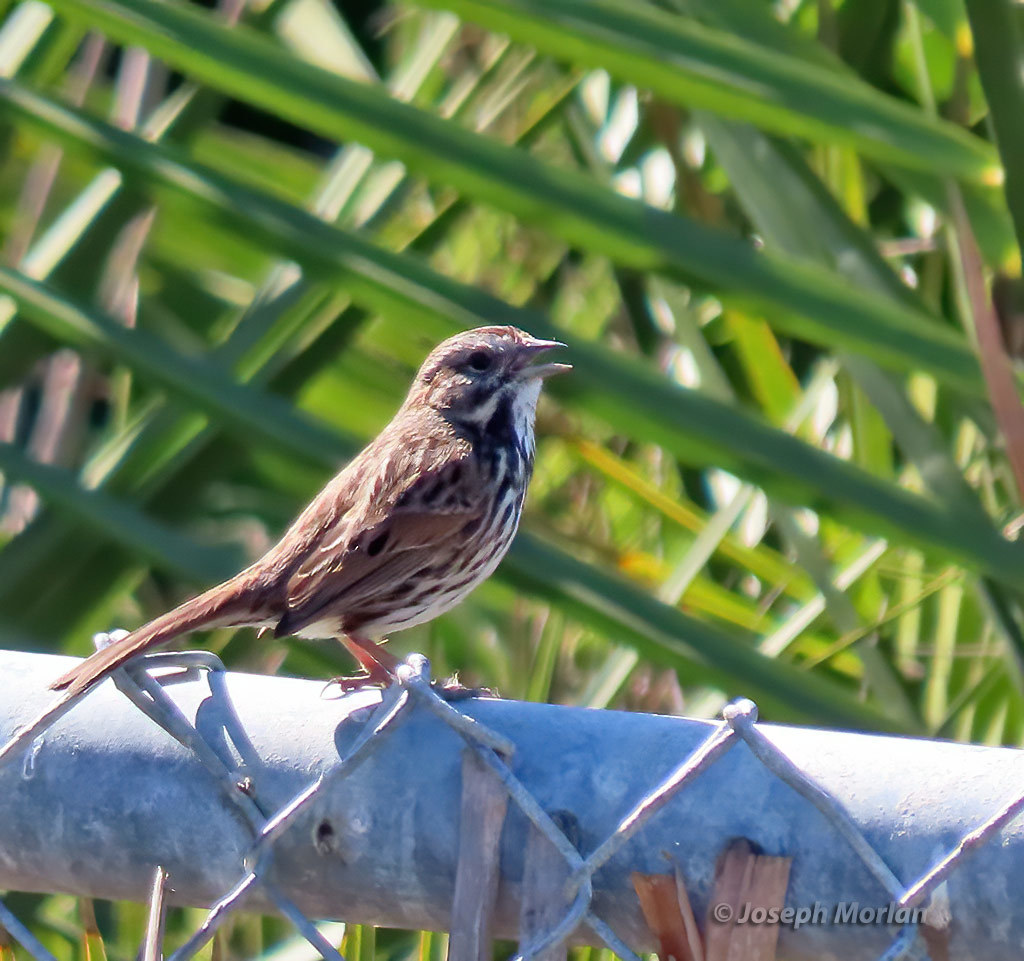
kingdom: Animalia
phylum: Chordata
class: Aves
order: Passeriformes
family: Passerellidae
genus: Melospiza
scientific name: Melospiza melodia
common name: Song sparrow
